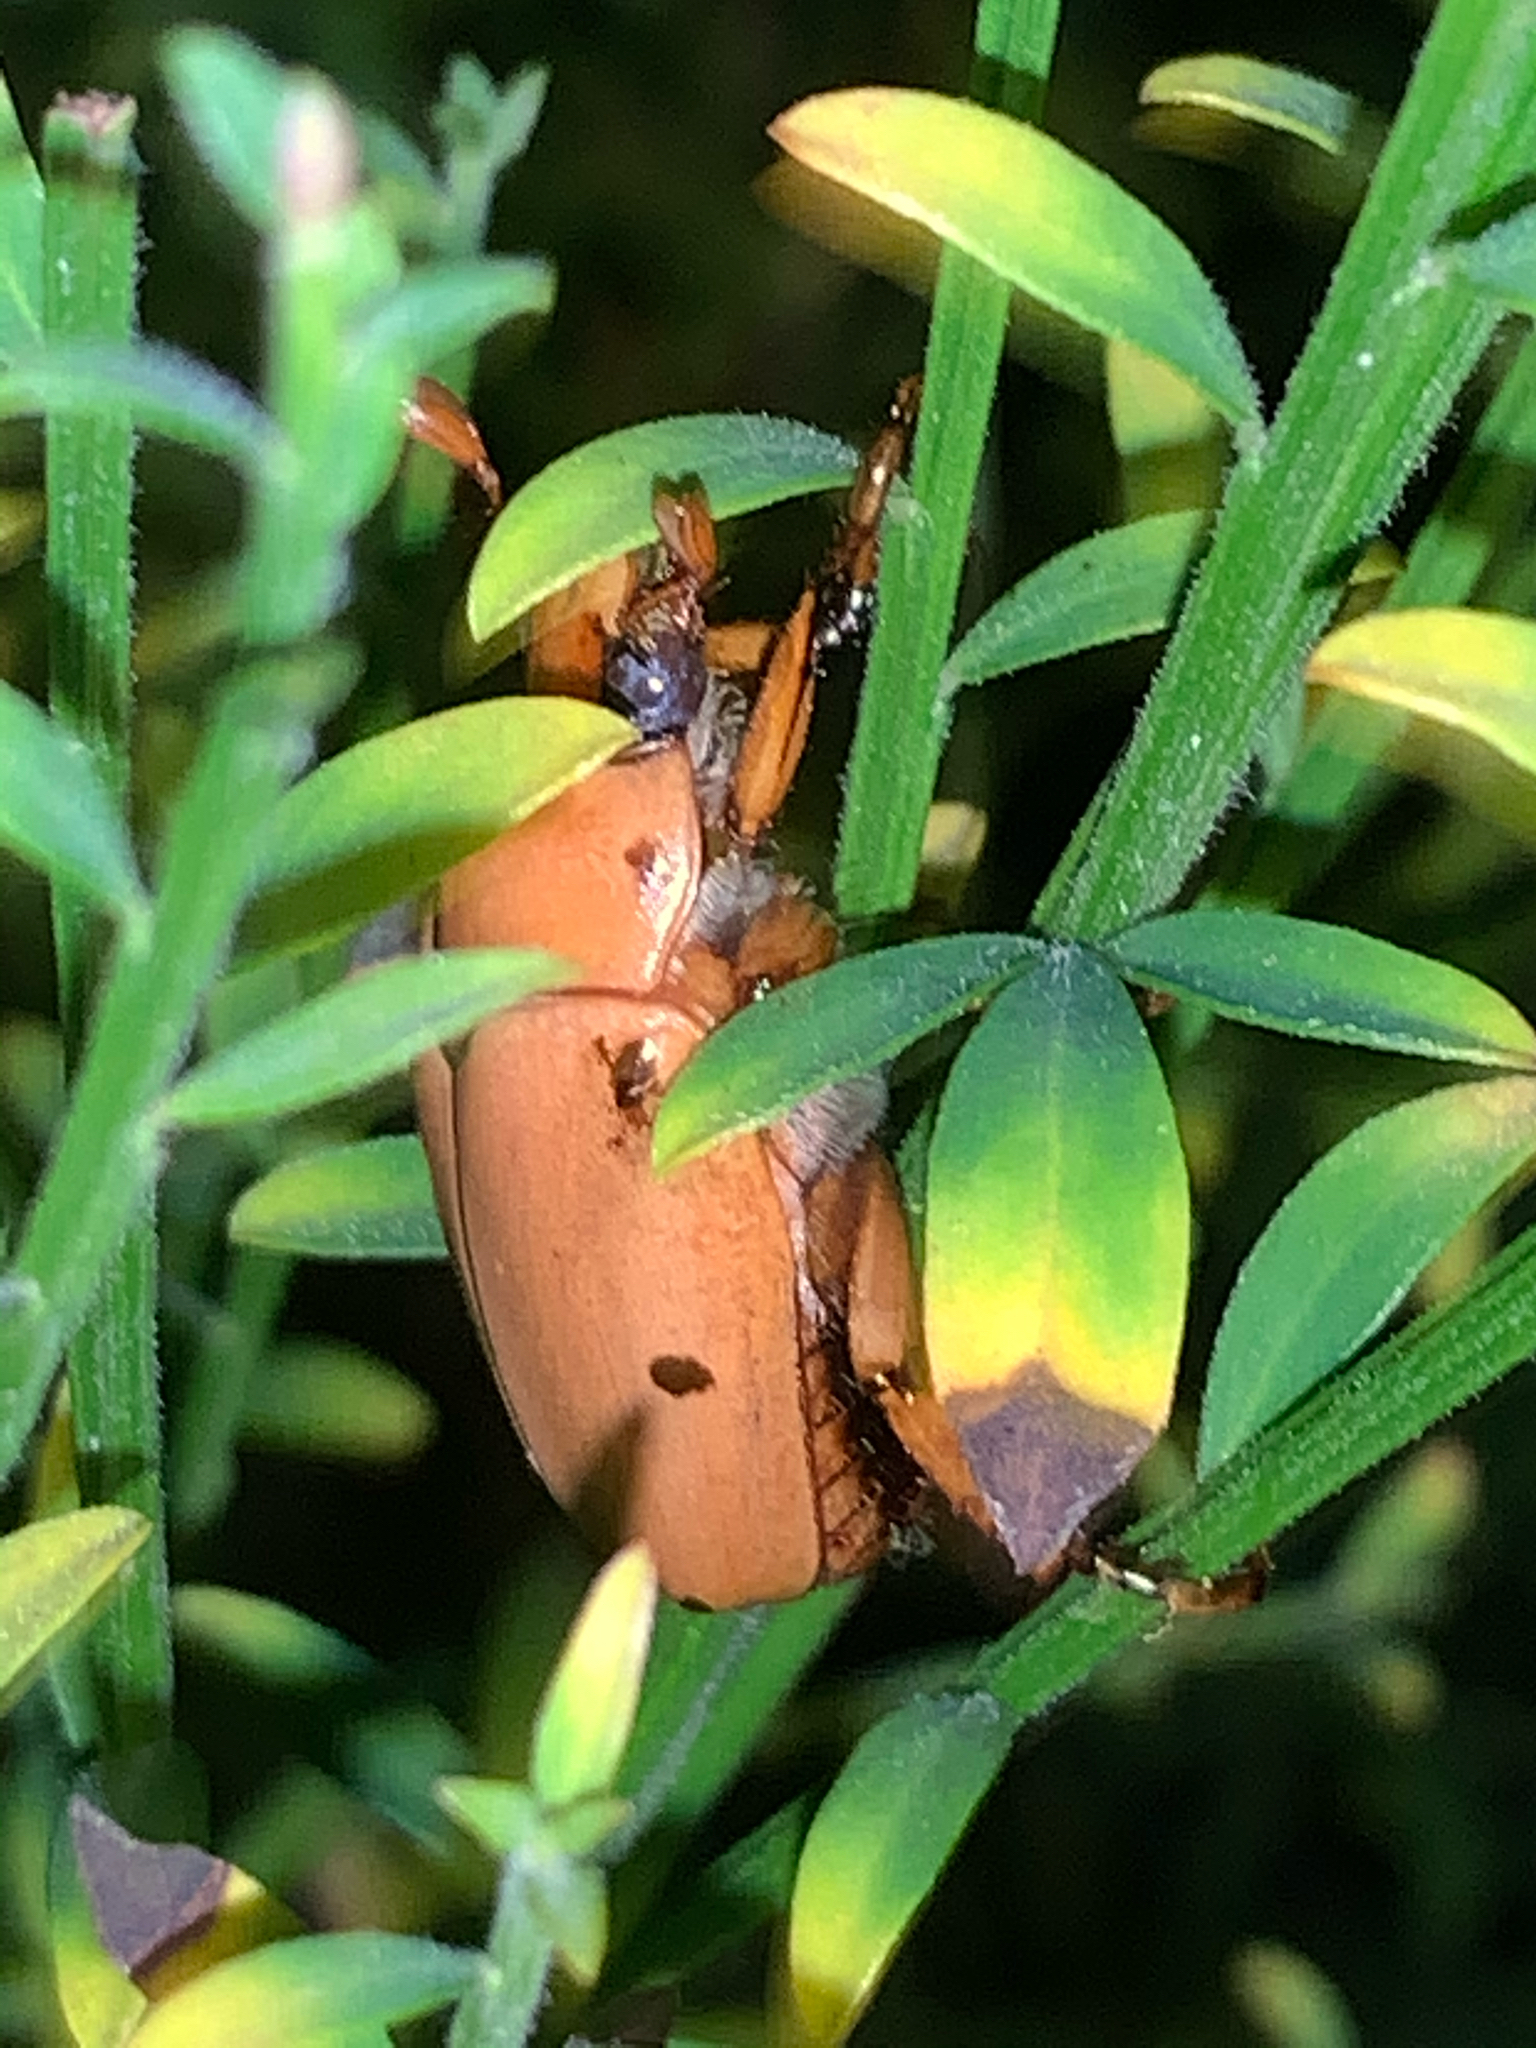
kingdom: Animalia
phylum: Arthropoda
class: Insecta
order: Coleoptera
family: Scarabaeidae
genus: Pelidnota
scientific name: Pelidnota punctata
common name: Grapevine beetle
